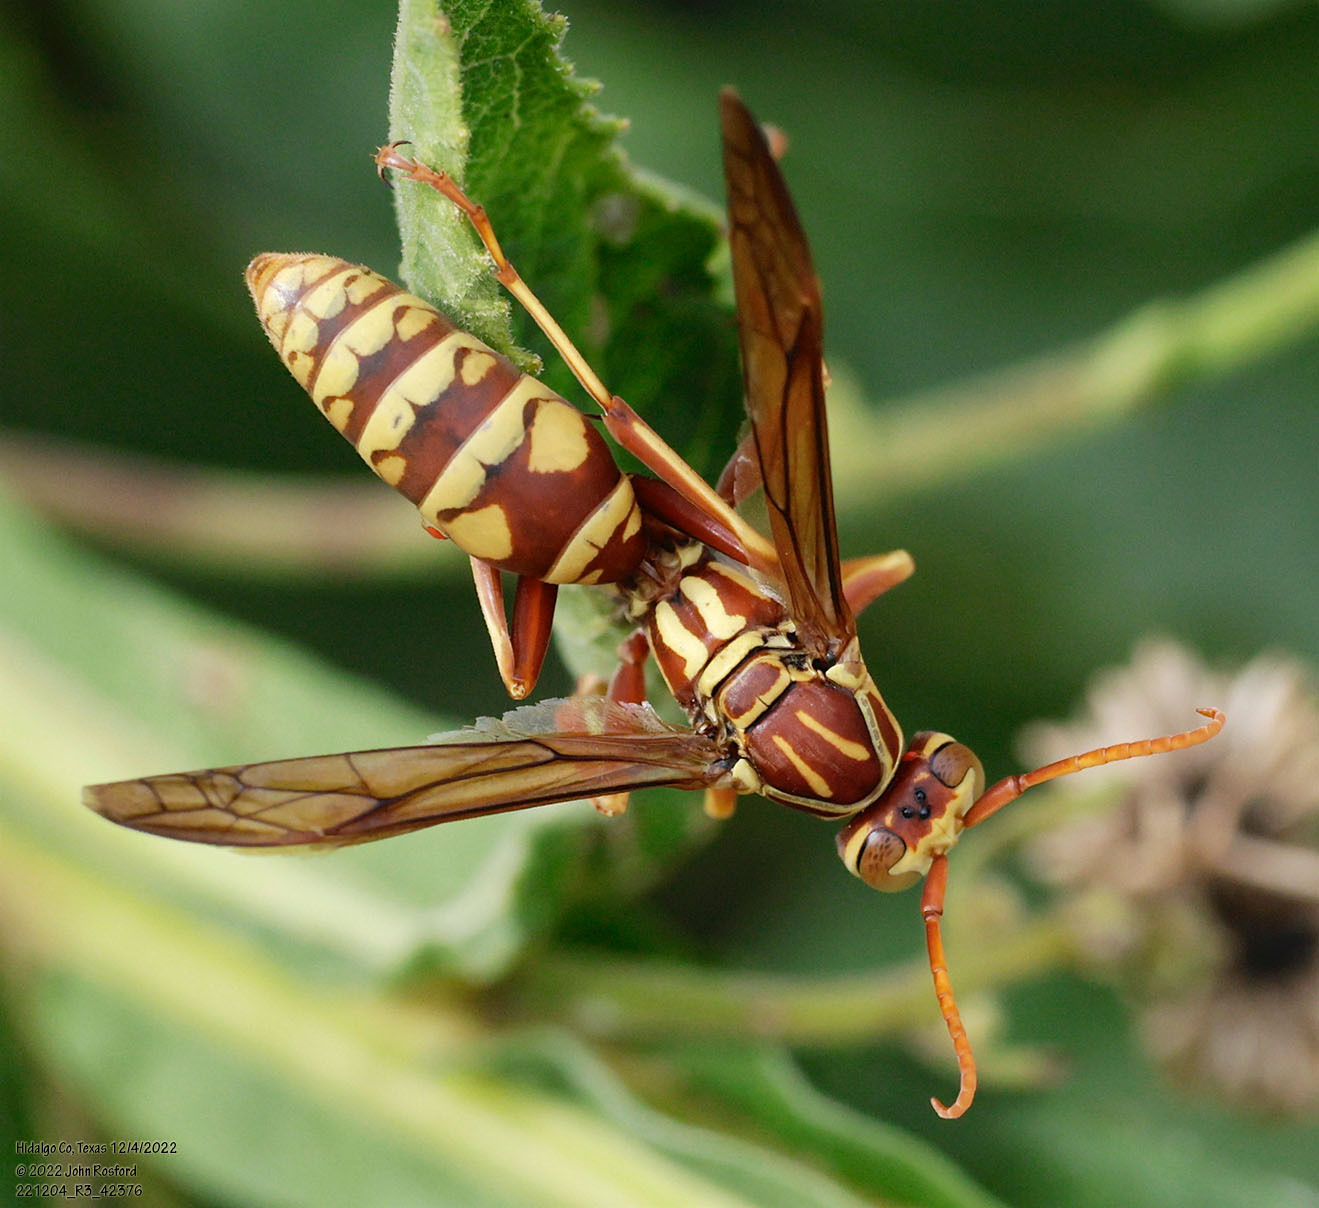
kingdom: Animalia
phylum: Arthropoda
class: Insecta
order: Hymenoptera
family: Eumenidae
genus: Polistes
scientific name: Polistes apachus
